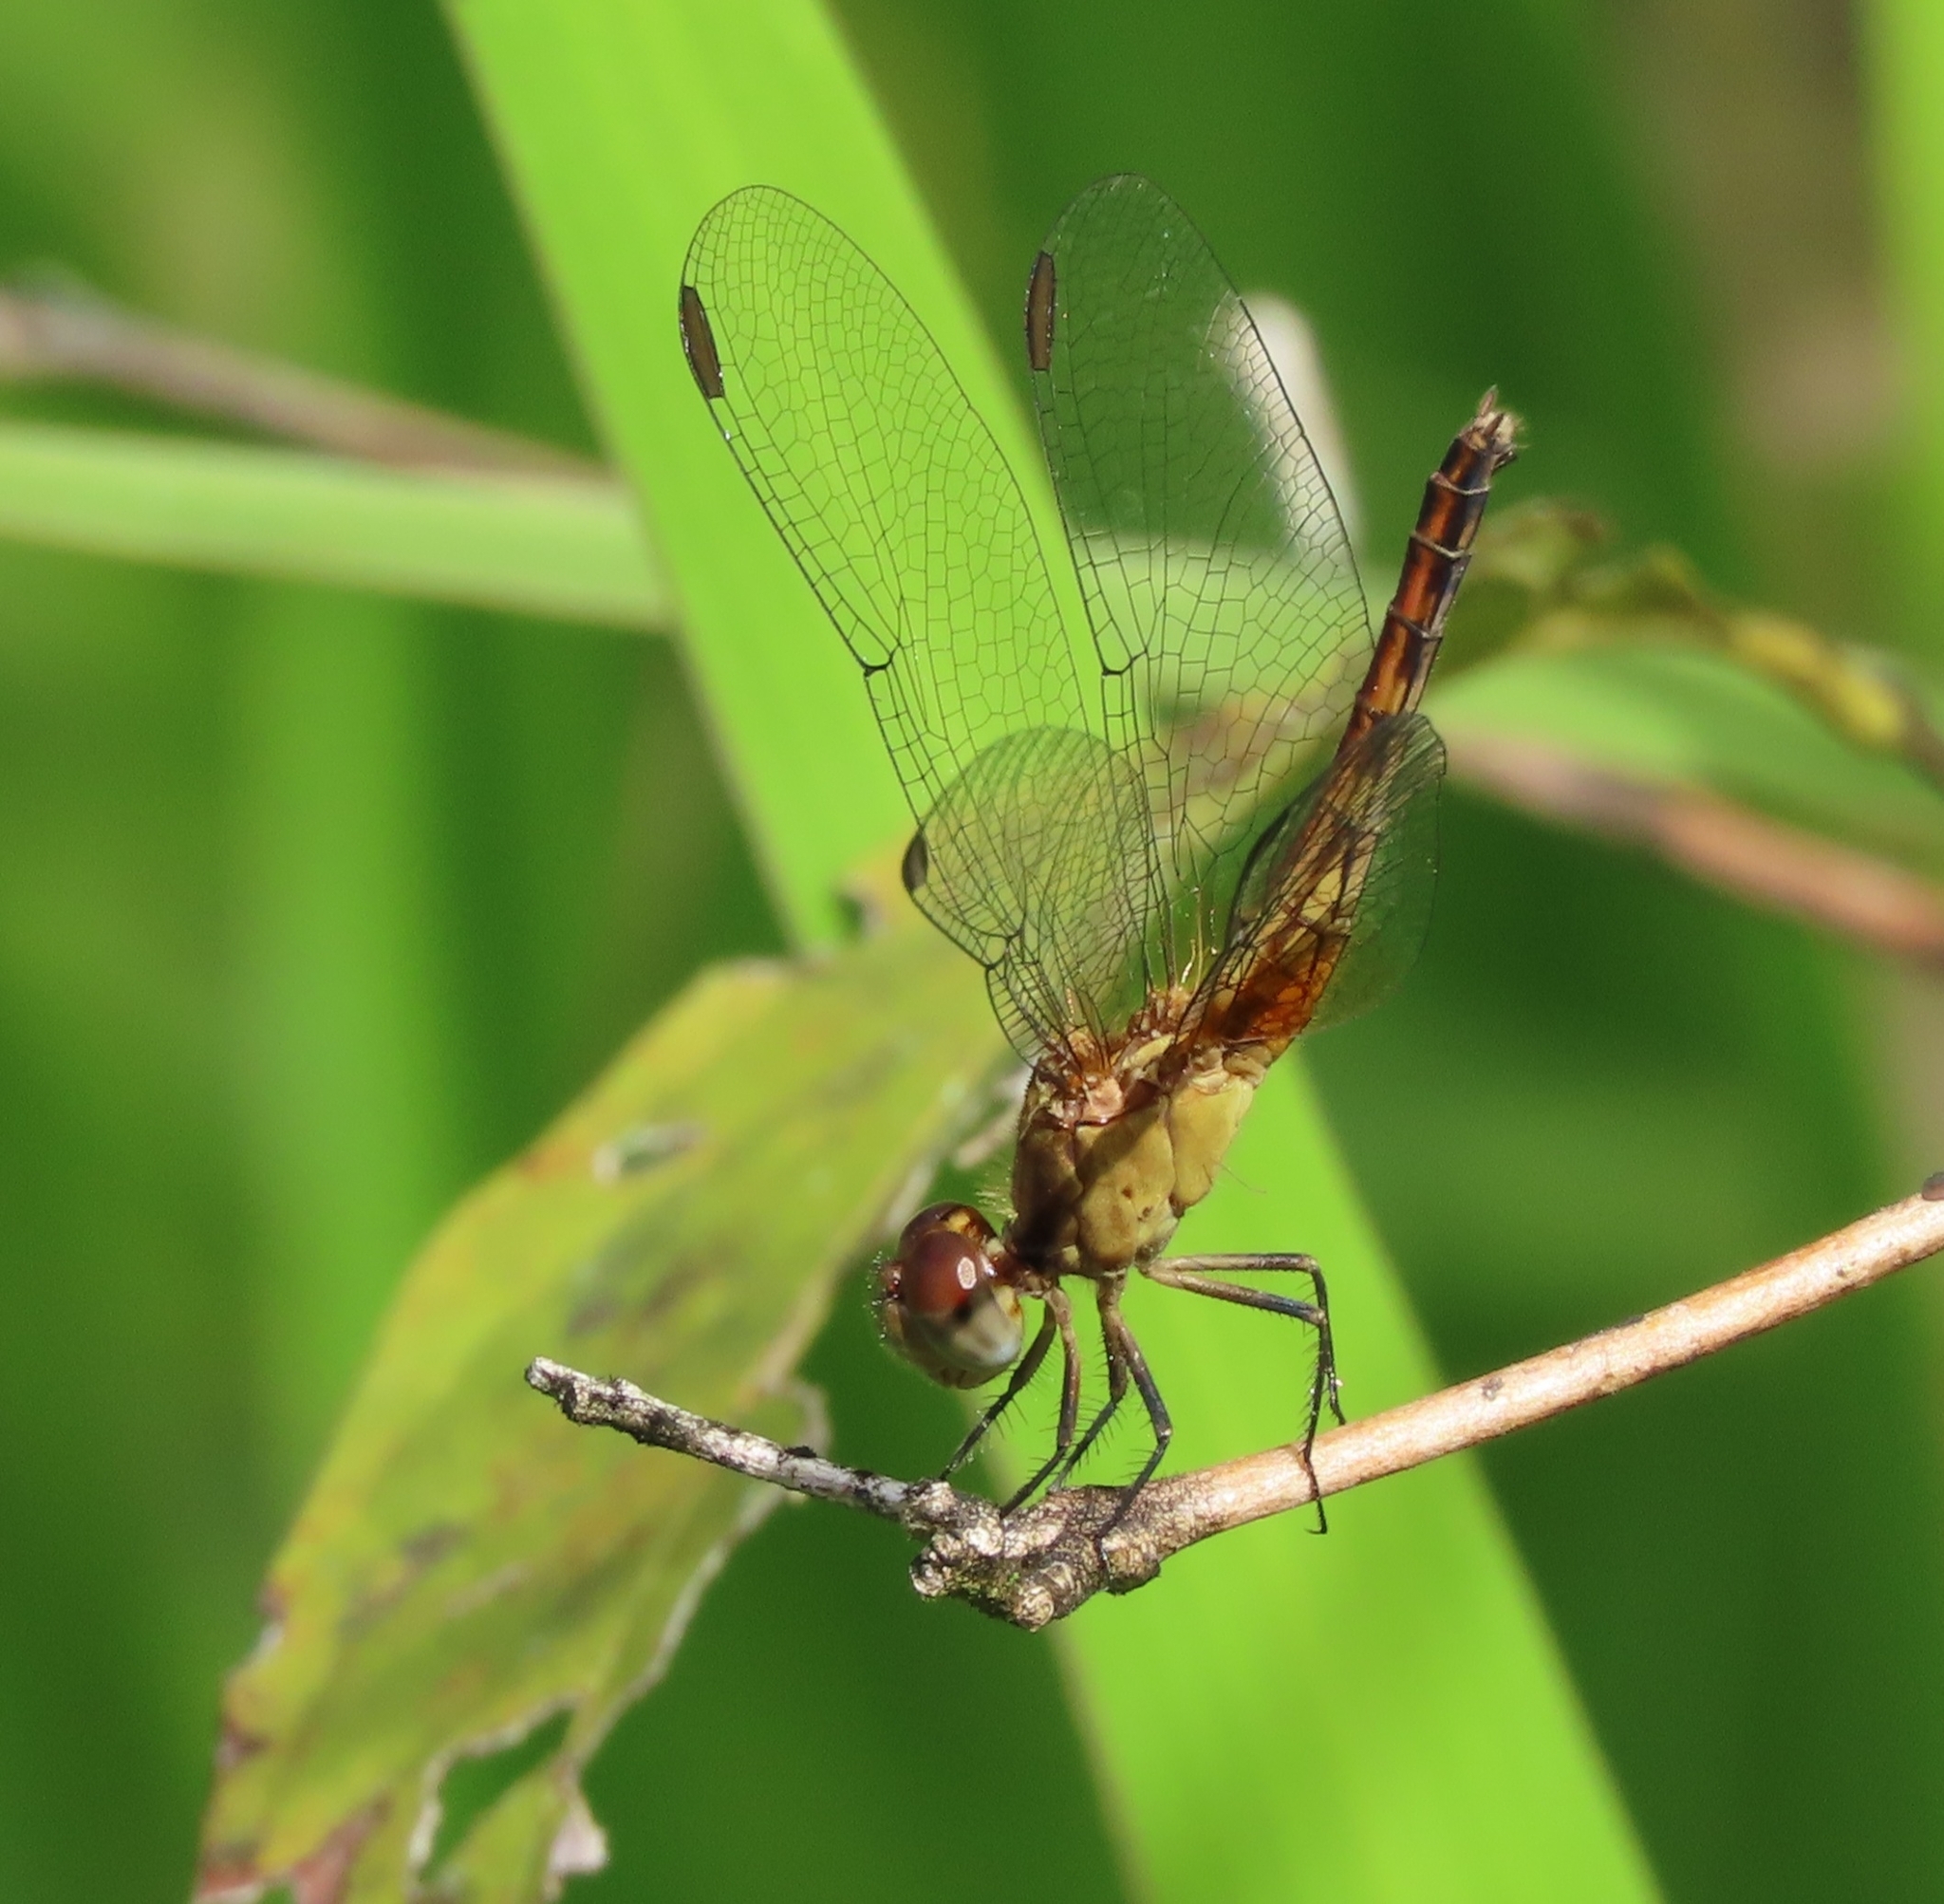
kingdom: Animalia
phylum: Arthropoda
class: Insecta
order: Odonata
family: Libellulidae
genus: Erythrodiplax
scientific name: Erythrodiplax fusca
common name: Red-faced dragonlet
